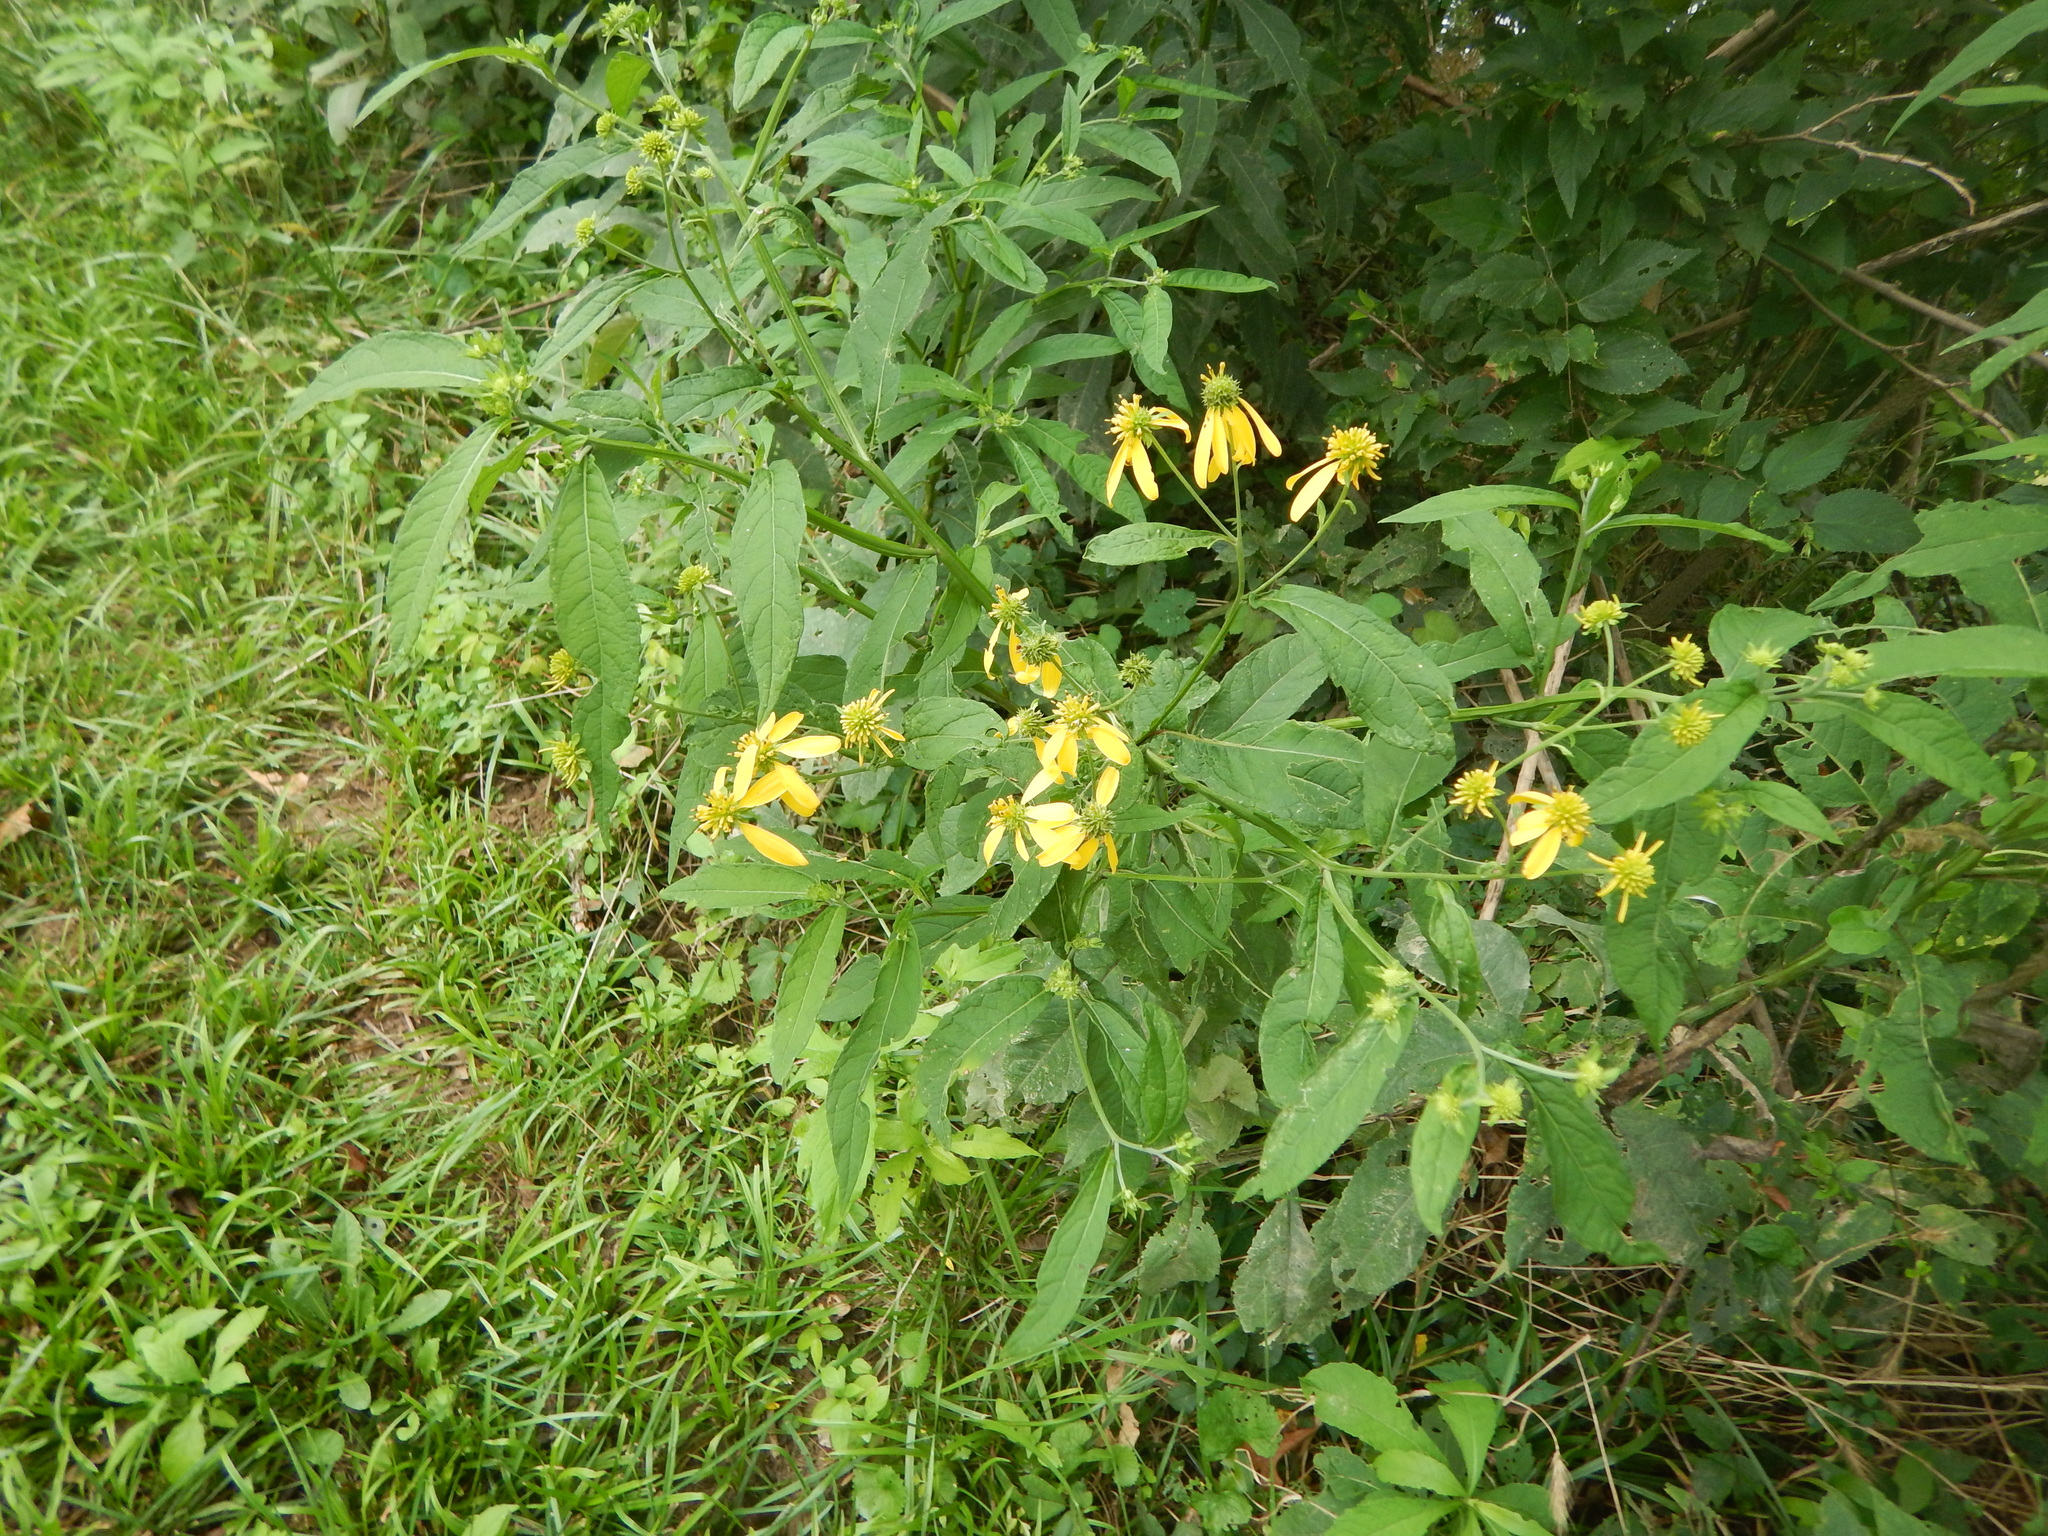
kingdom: Plantae
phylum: Tracheophyta
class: Magnoliopsida
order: Asterales
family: Asteraceae
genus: Verbesina
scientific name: Verbesina alternifolia
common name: Wingstem
